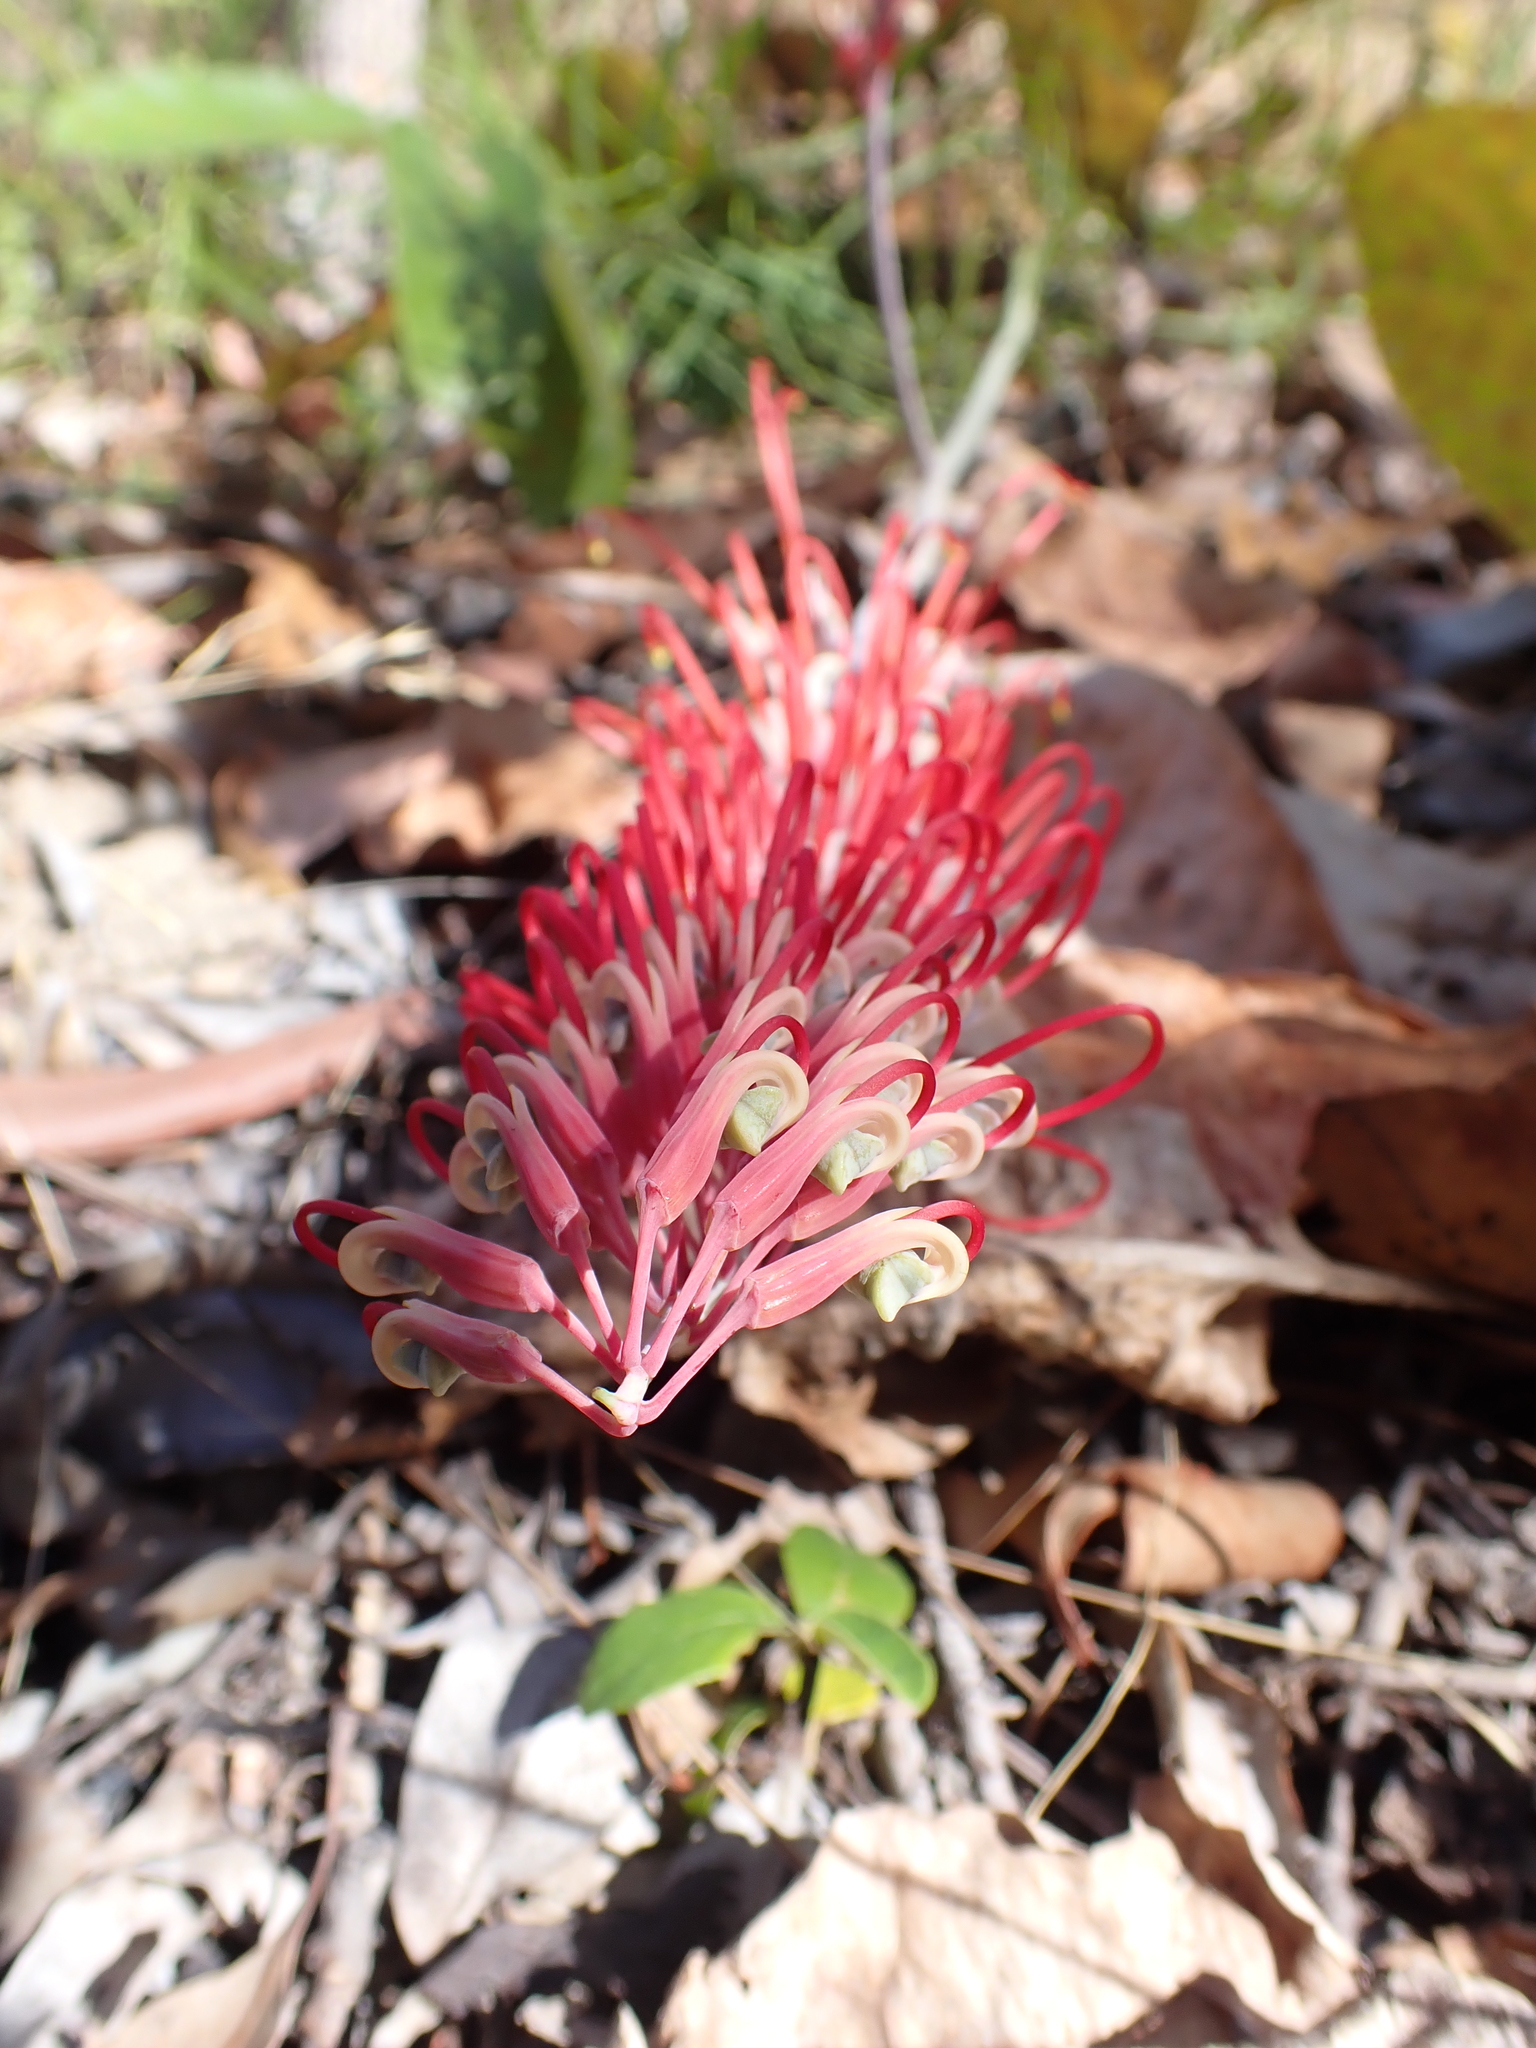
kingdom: Plantae
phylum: Tracheophyta
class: Magnoliopsida
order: Proteales
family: Proteaceae
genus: Grevillea
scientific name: Grevillea dryandri
